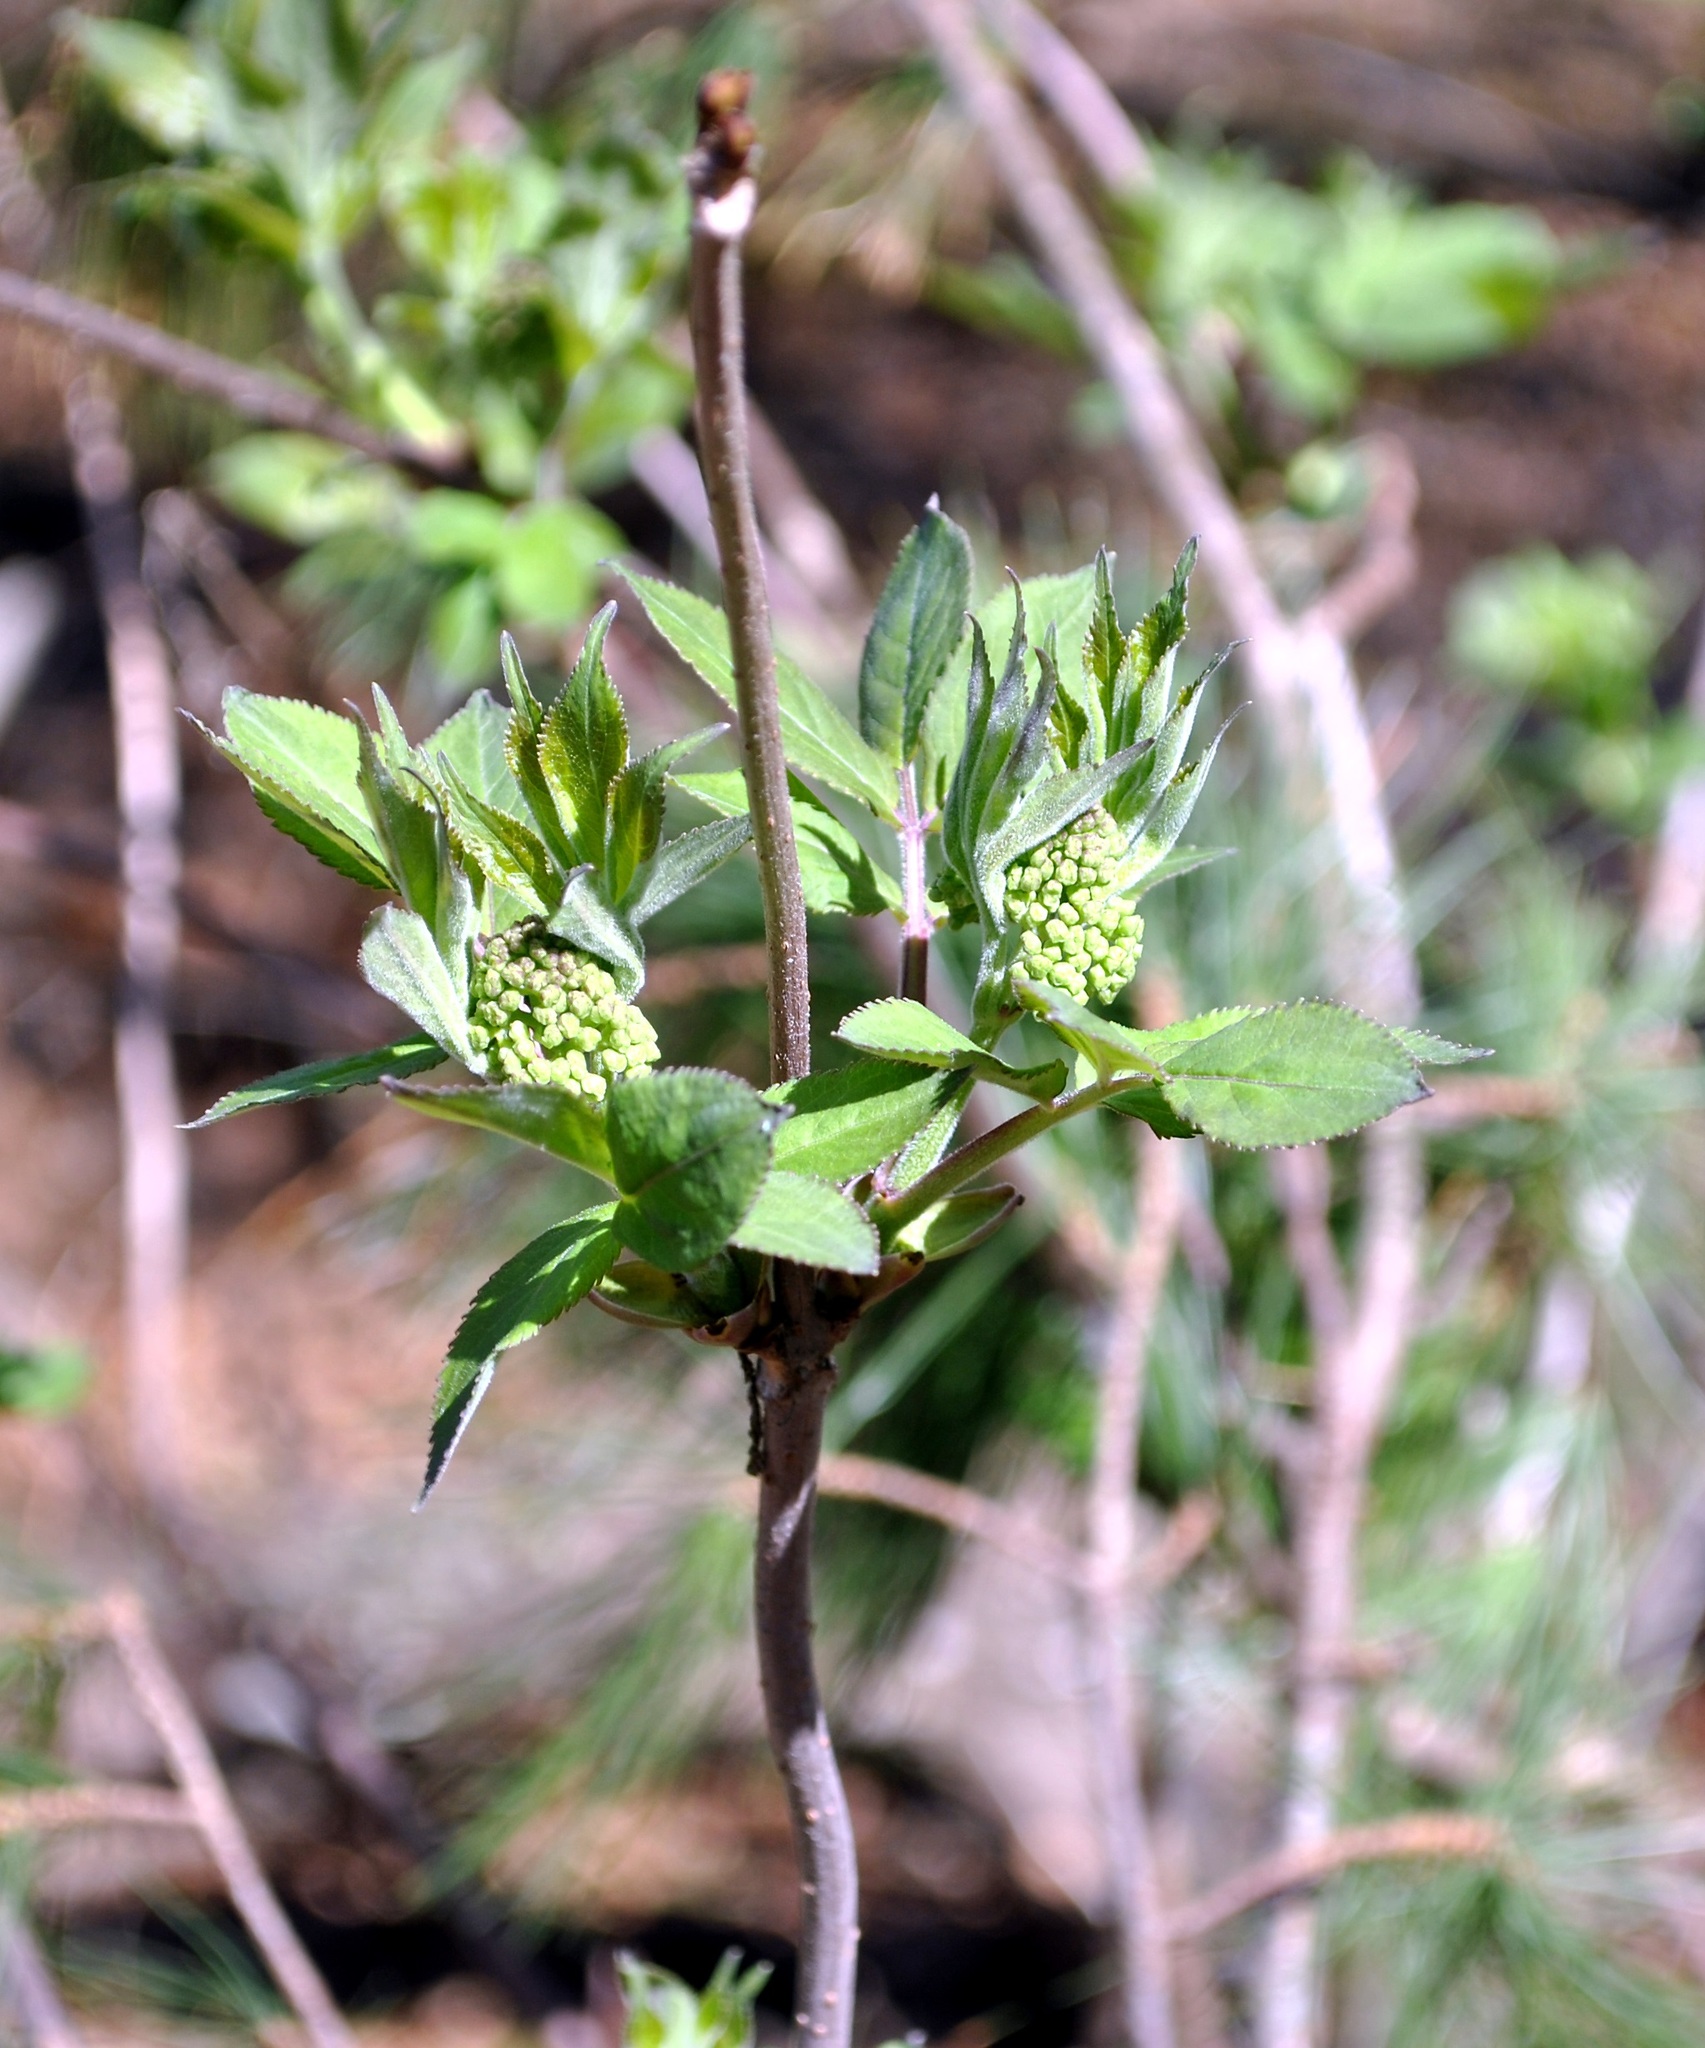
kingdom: Plantae
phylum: Tracheophyta
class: Magnoliopsida
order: Dipsacales
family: Viburnaceae
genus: Sambucus
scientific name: Sambucus racemosa
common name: Red-berried elder
